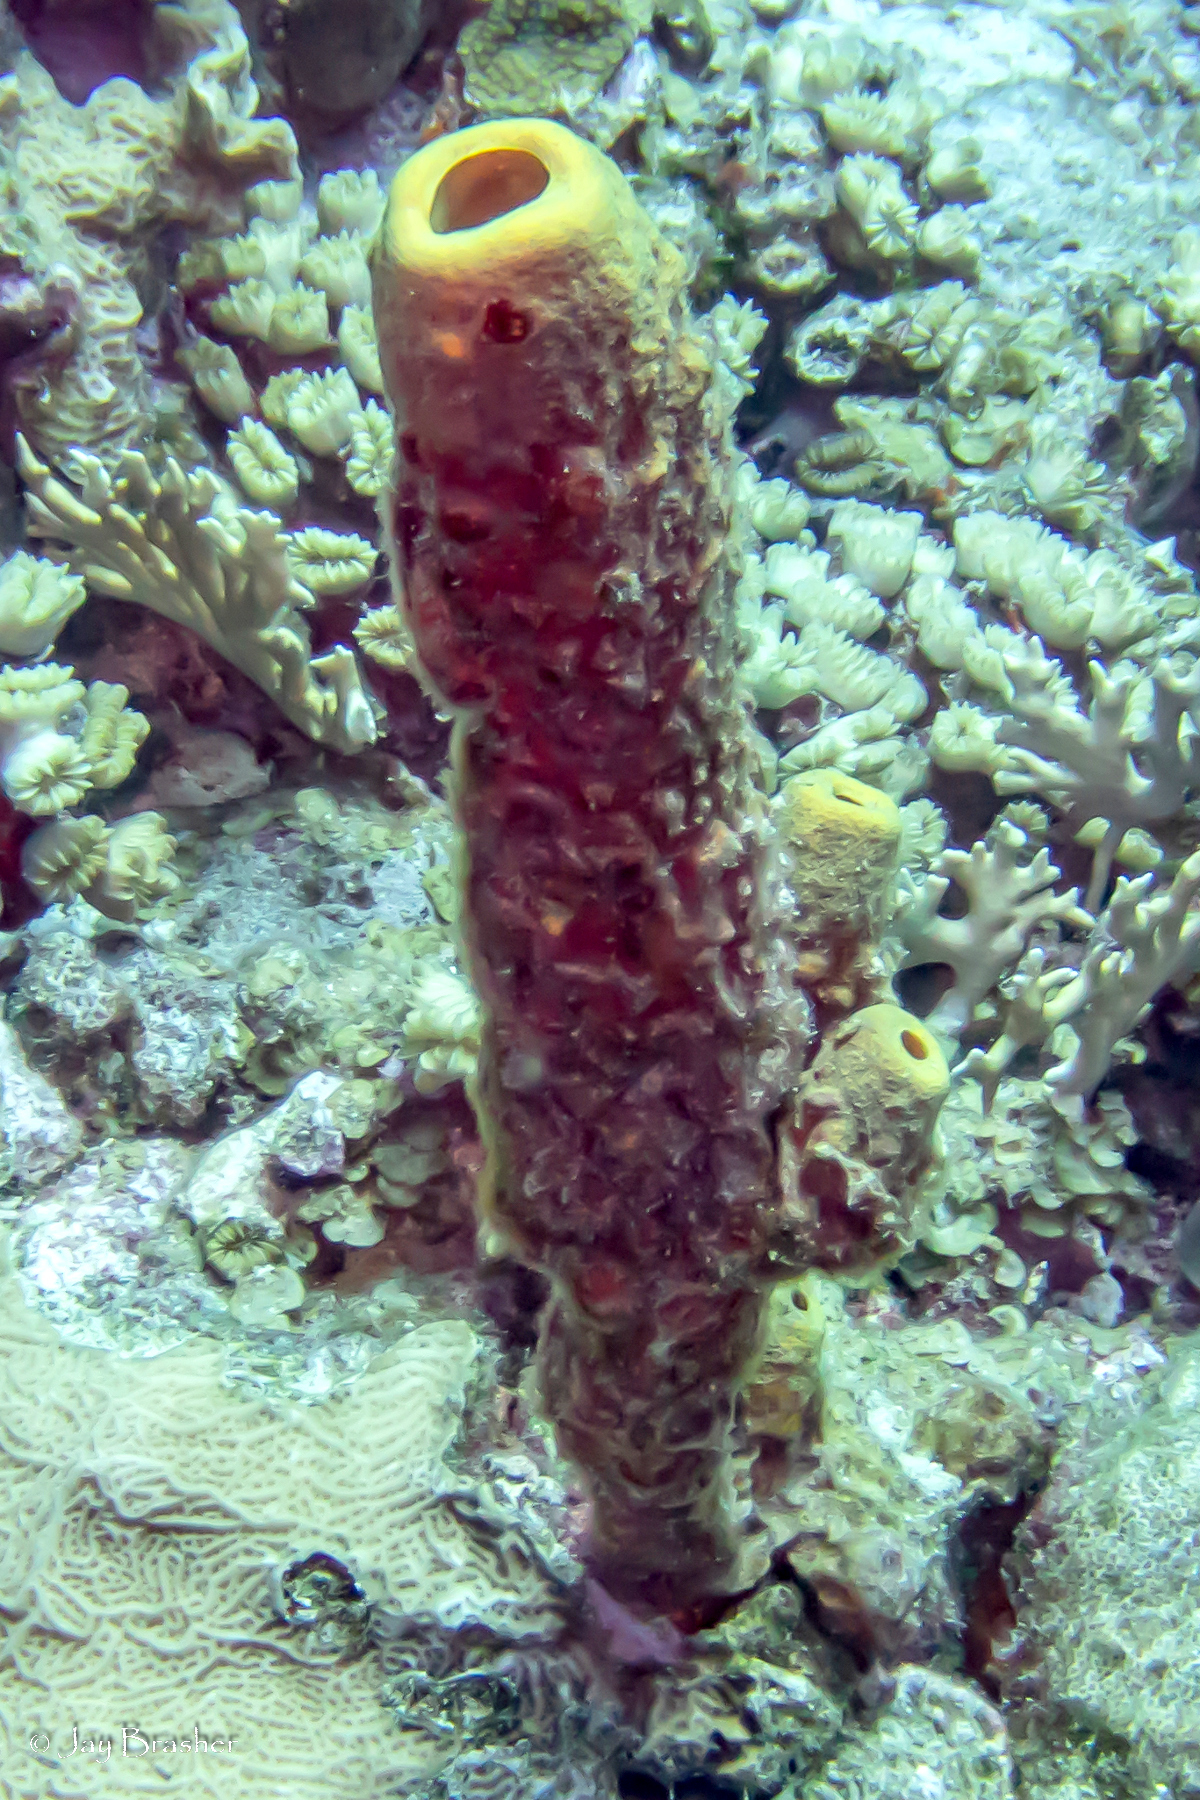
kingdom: Animalia
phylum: Porifera
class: Demospongiae
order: Verongiida
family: Aplysinidae
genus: Aplysina
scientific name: Aplysina archeri
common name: Stove-pipe sponge
